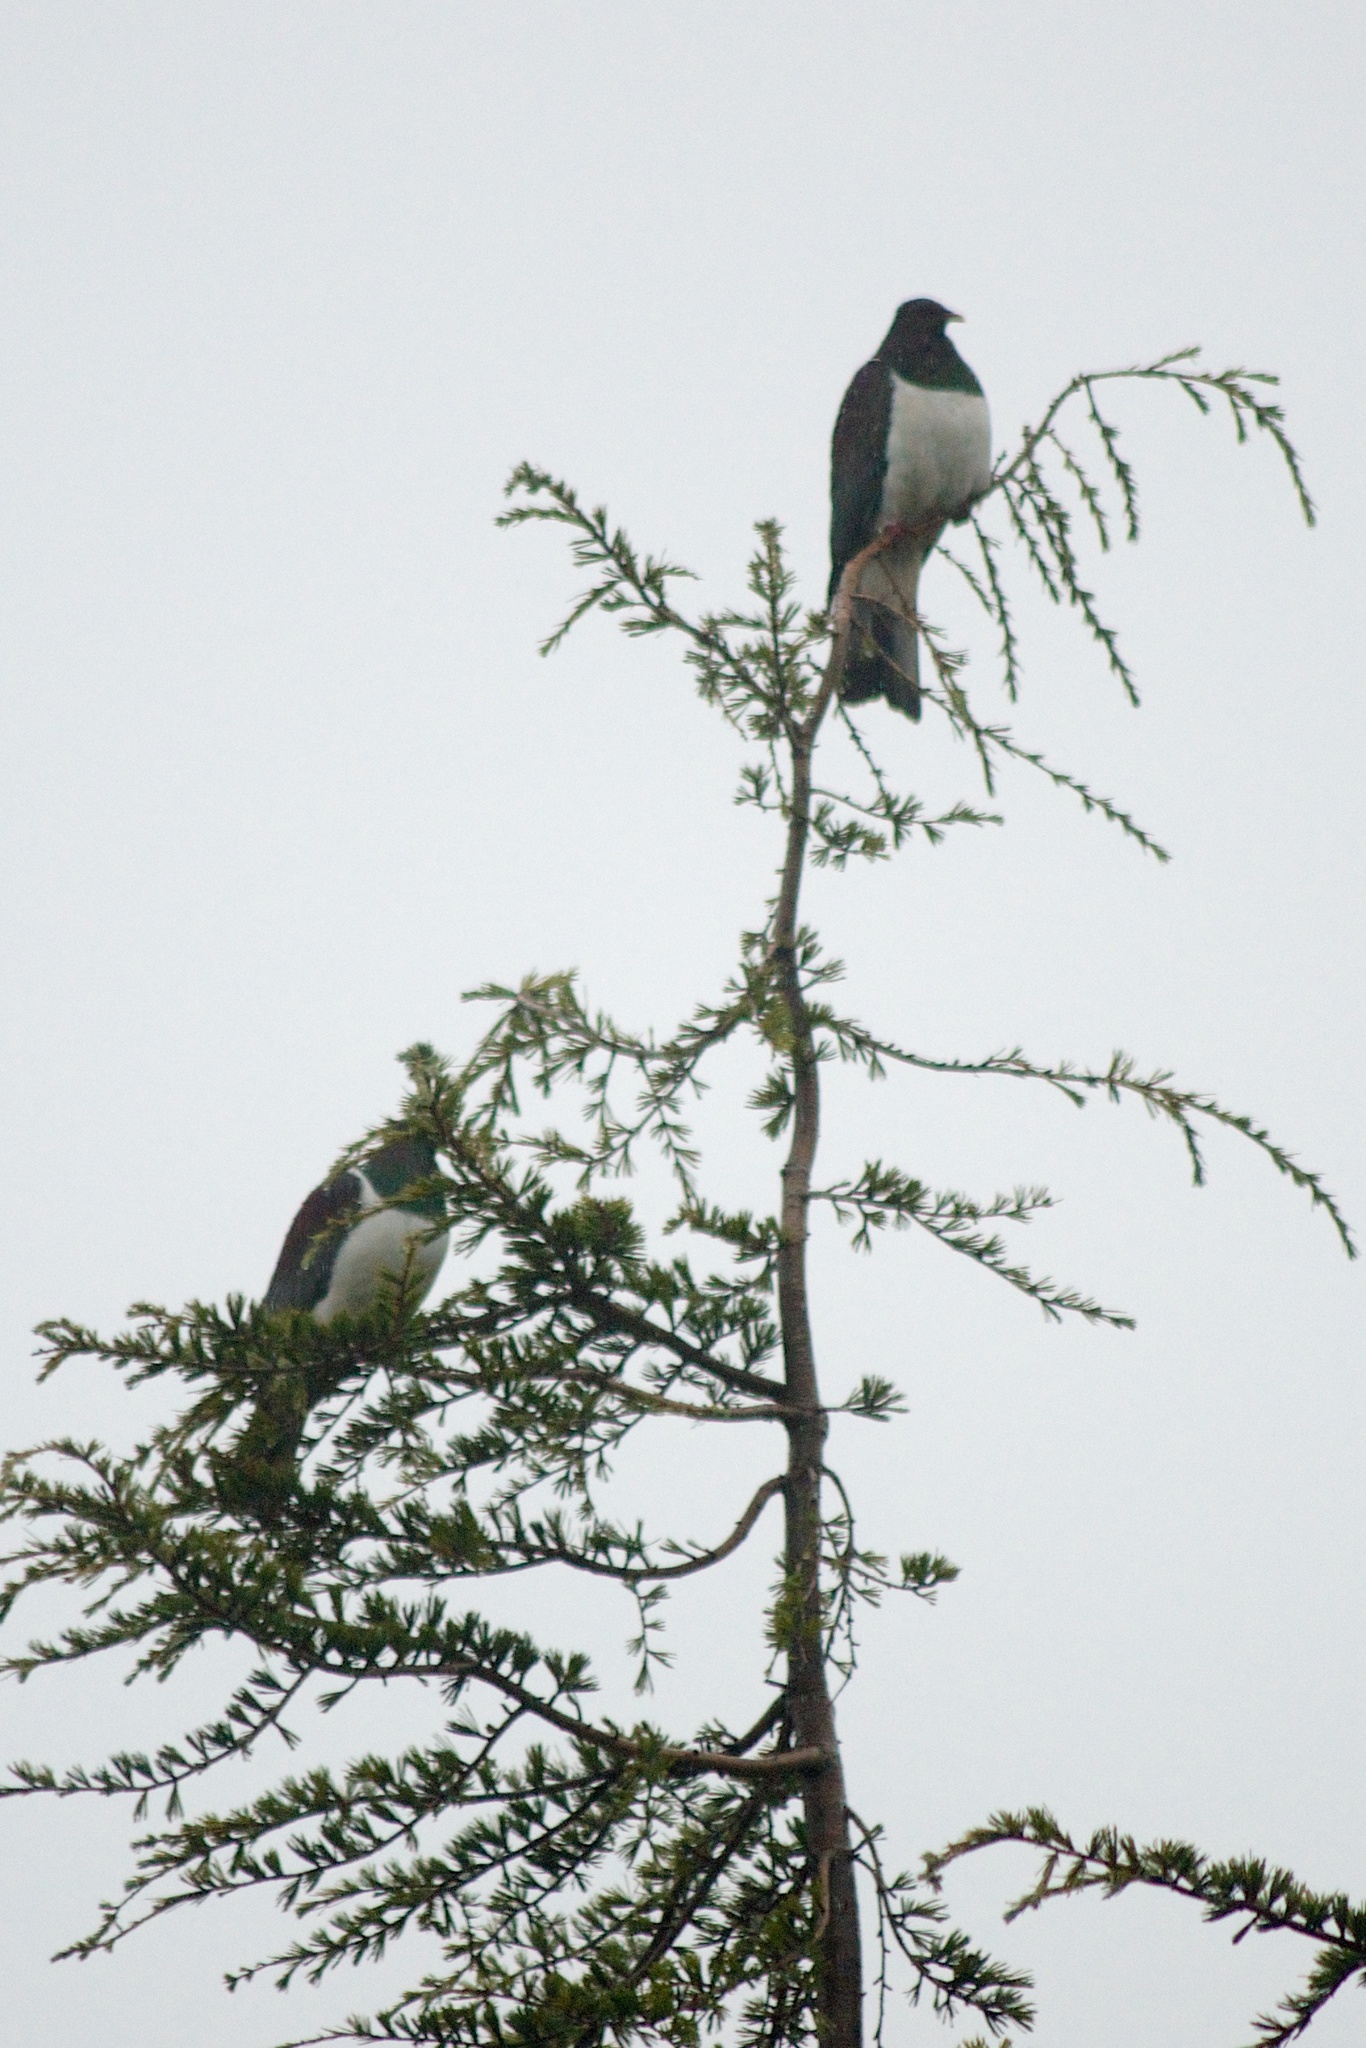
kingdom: Animalia
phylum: Chordata
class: Aves
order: Columbiformes
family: Columbidae
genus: Hemiphaga
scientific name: Hemiphaga novaeseelandiae
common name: New zealand pigeon
